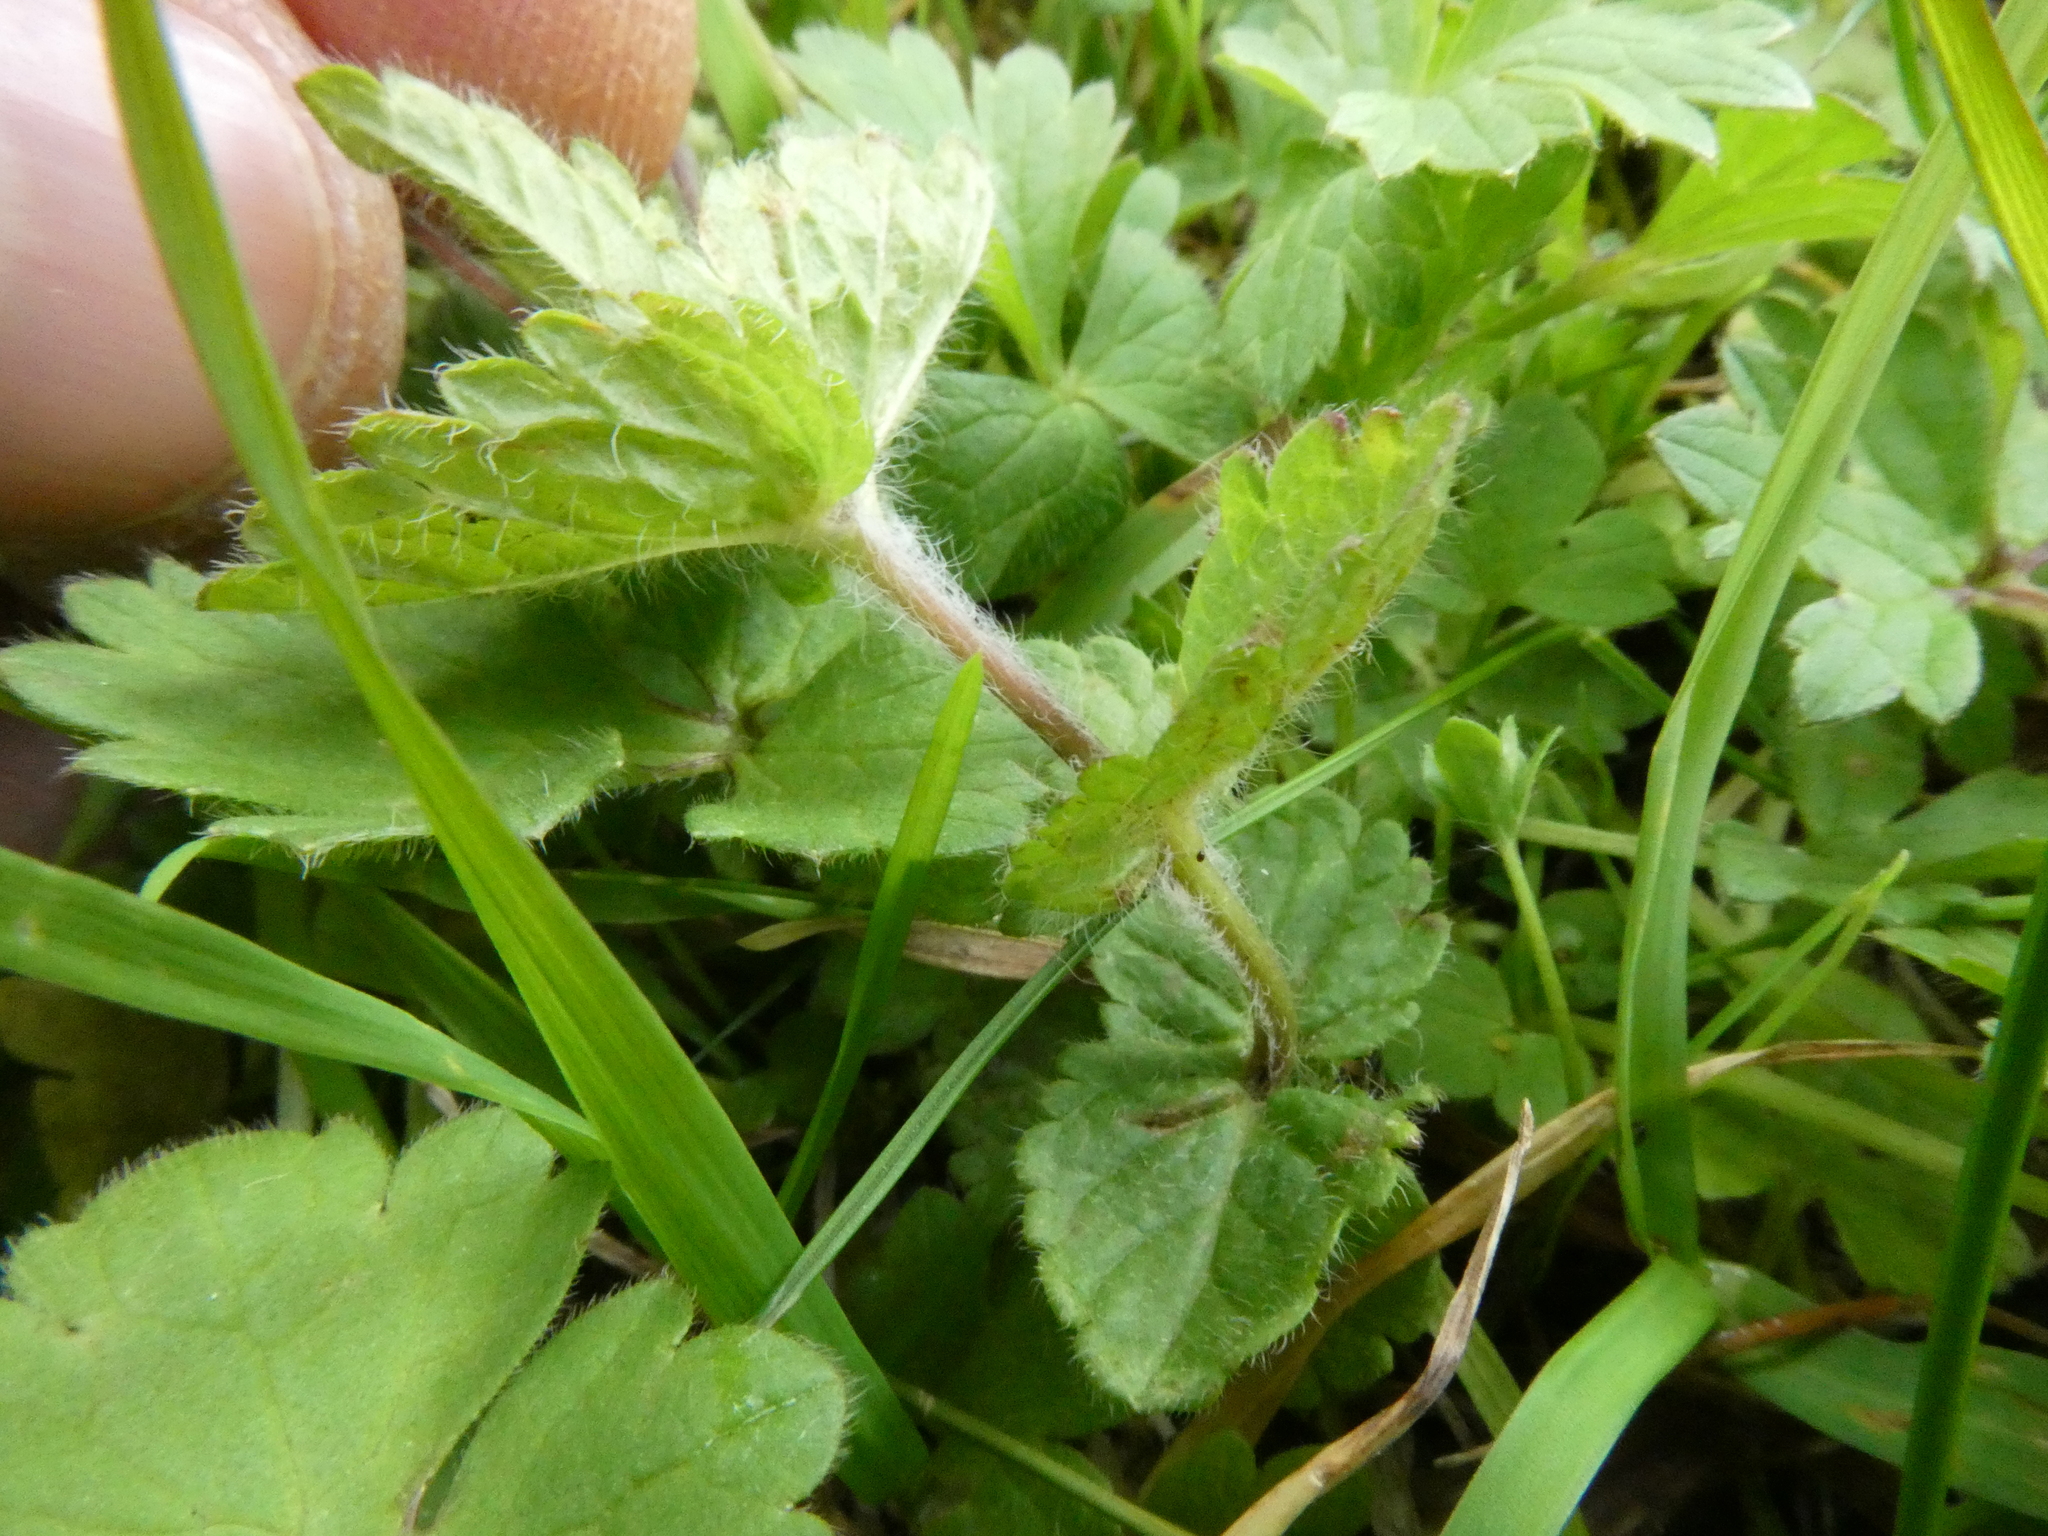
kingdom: Plantae
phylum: Tracheophyta
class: Magnoliopsida
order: Lamiales
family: Plantaginaceae
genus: Veronica
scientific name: Veronica chamaedrys
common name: Germander speedwell
